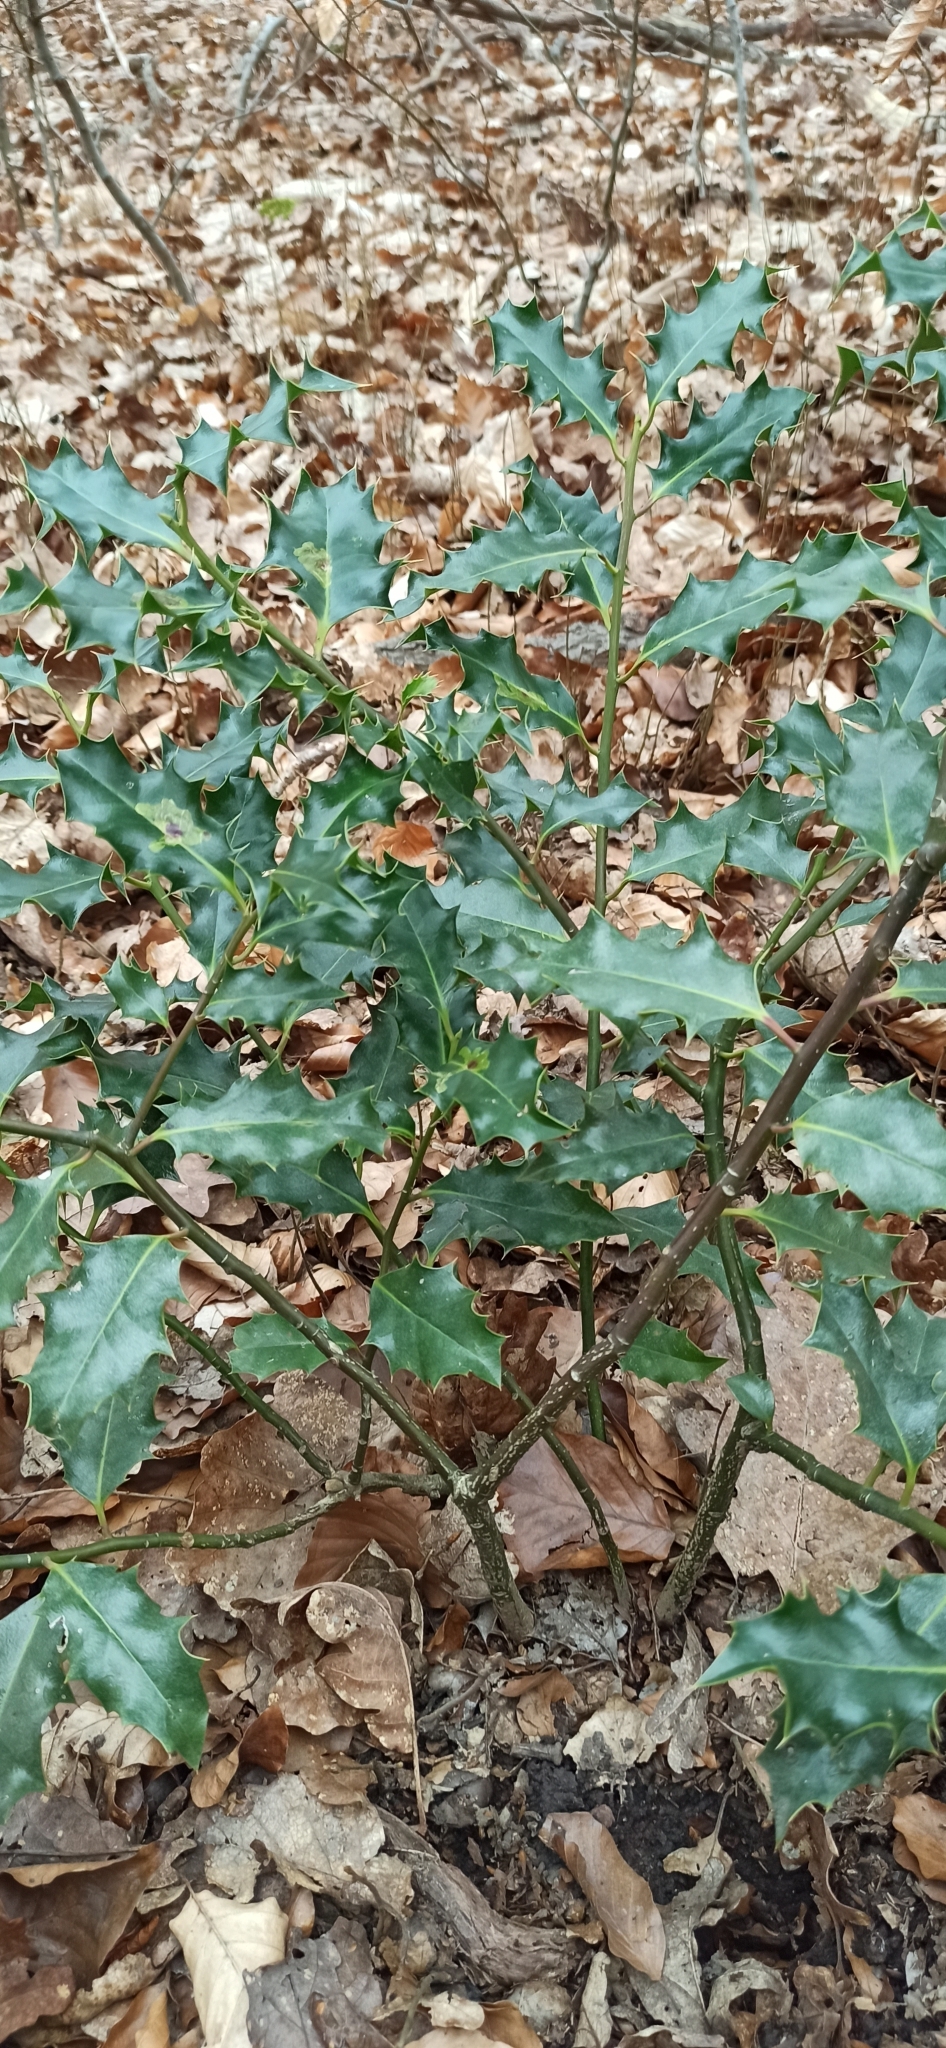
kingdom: Plantae
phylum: Tracheophyta
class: Magnoliopsida
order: Aquifoliales
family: Aquifoliaceae
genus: Ilex
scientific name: Ilex aquifolium
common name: English holly
